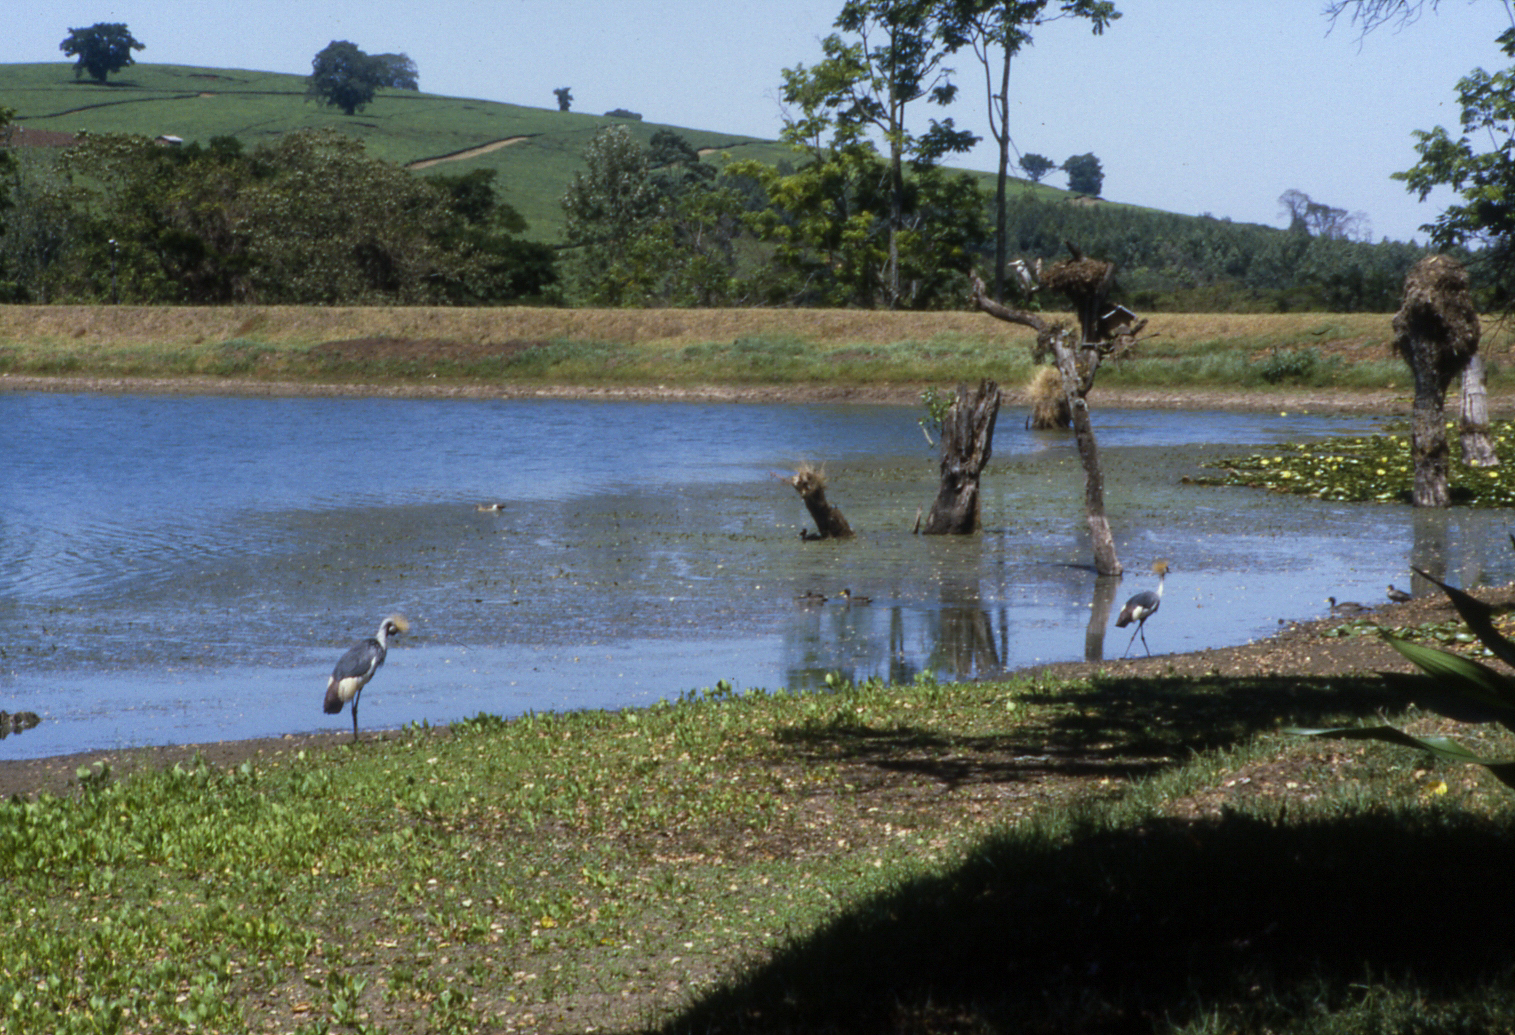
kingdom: Animalia
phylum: Chordata
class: Aves
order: Gruiformes
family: Gruidae
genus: Balearica
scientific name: Balearica regulorum
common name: Grey crowned crane
